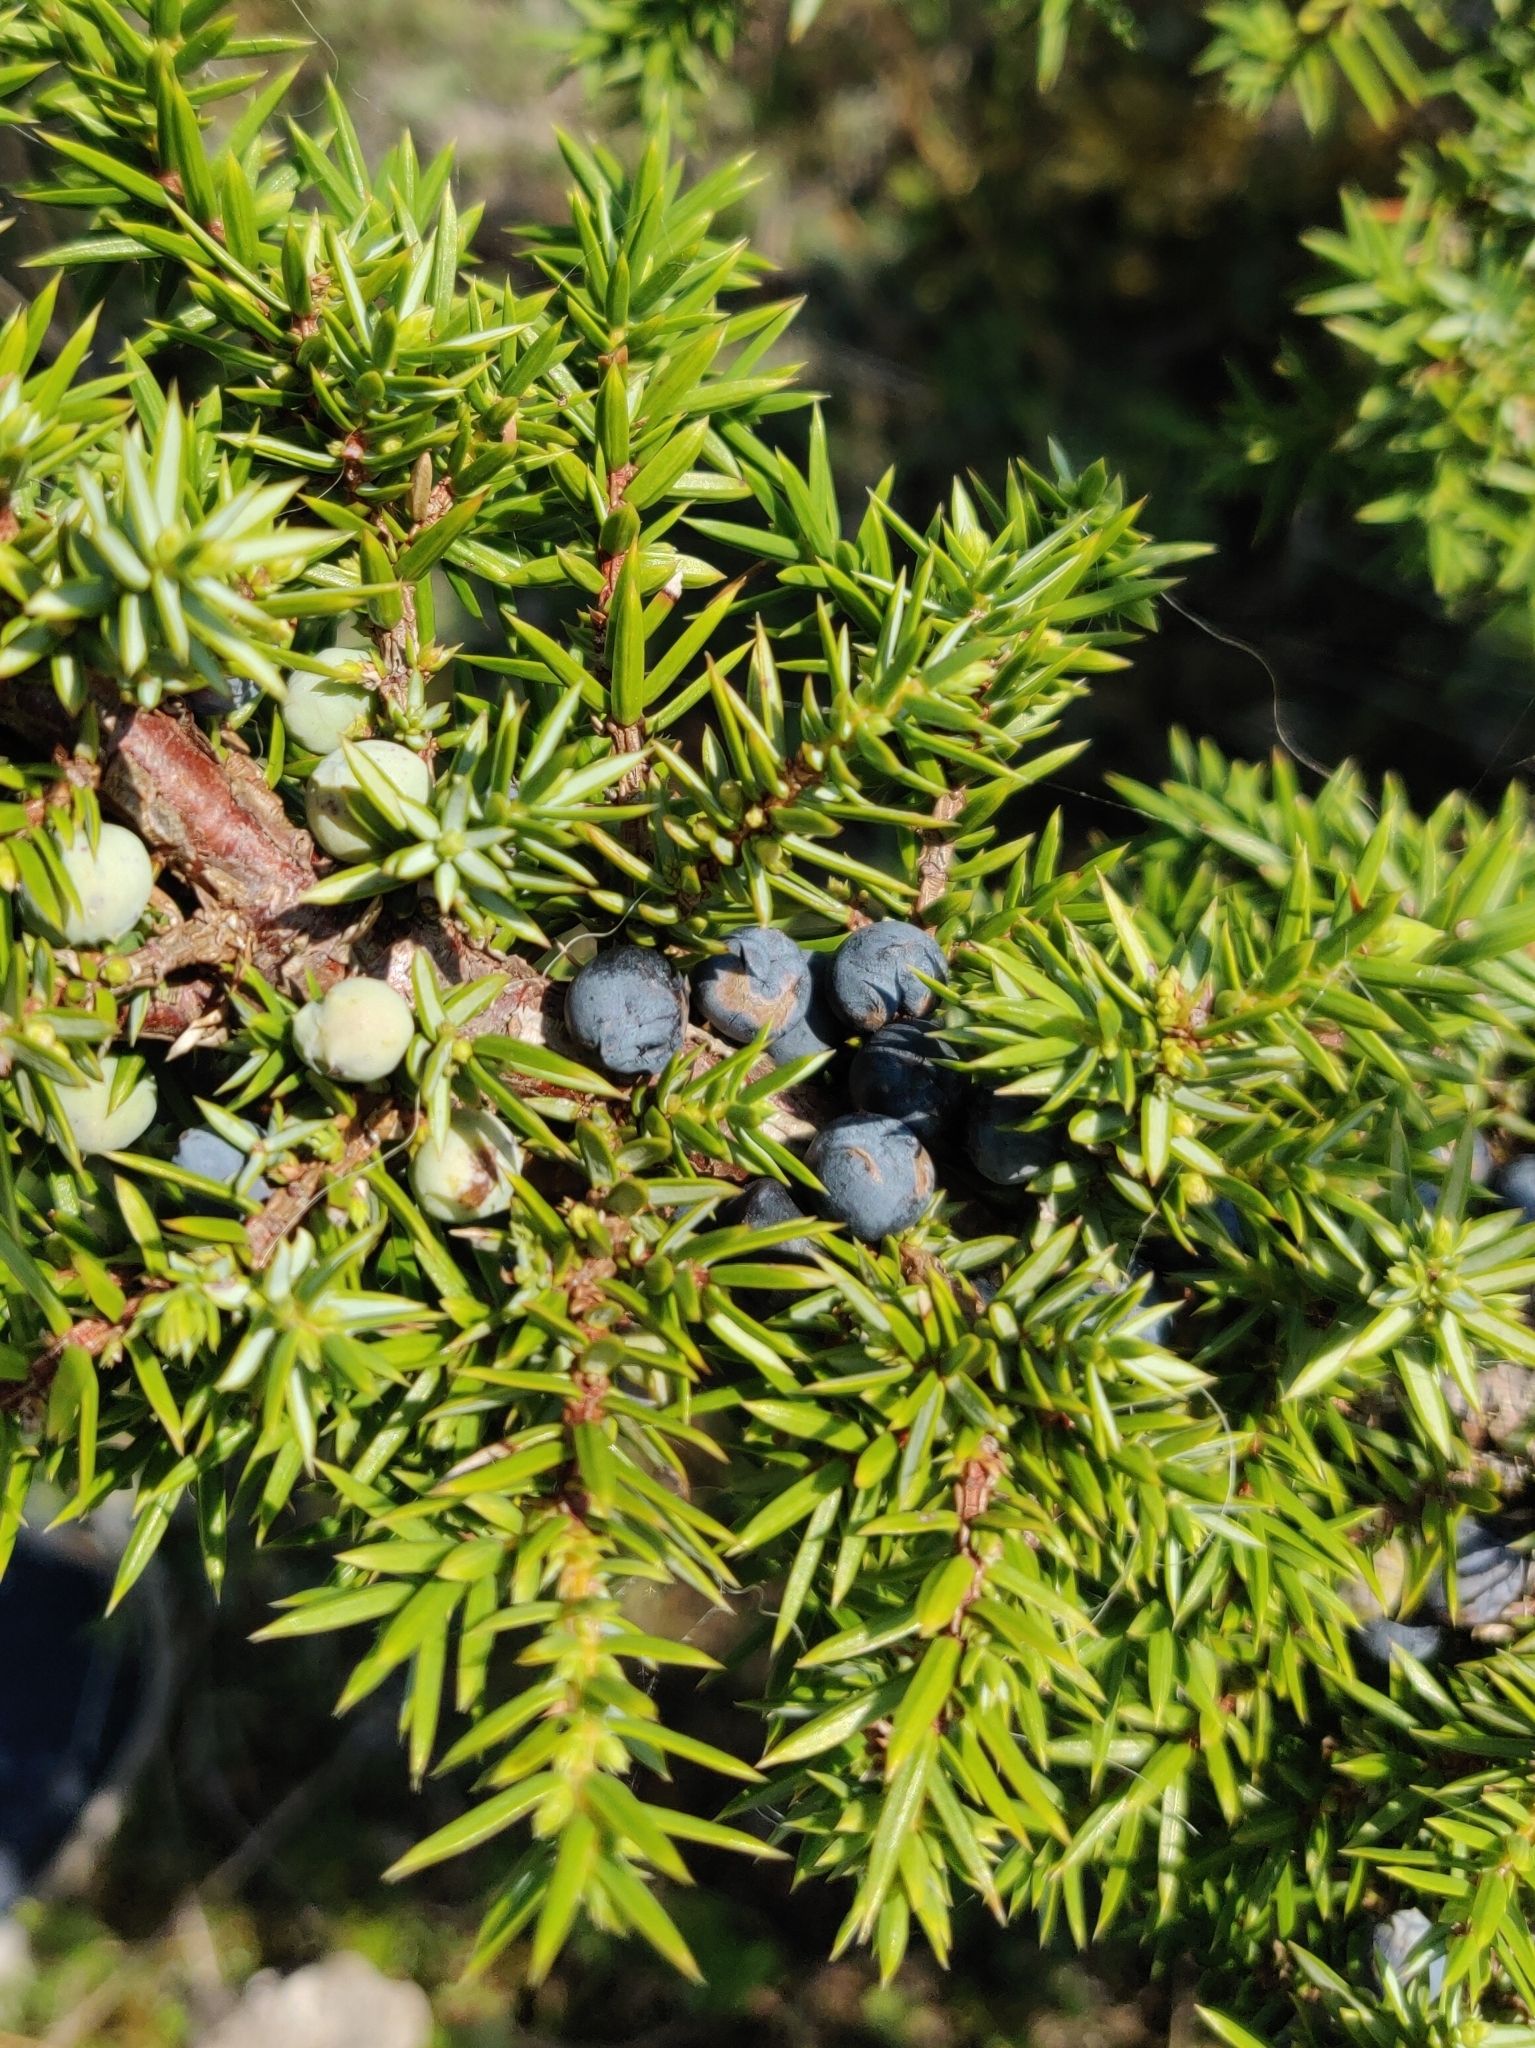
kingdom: Plantae
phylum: Tracheophyta
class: Pinopsida
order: Pinales
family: Cupressaceae
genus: Juniperus
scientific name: Juniperus communis
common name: Common juniper
